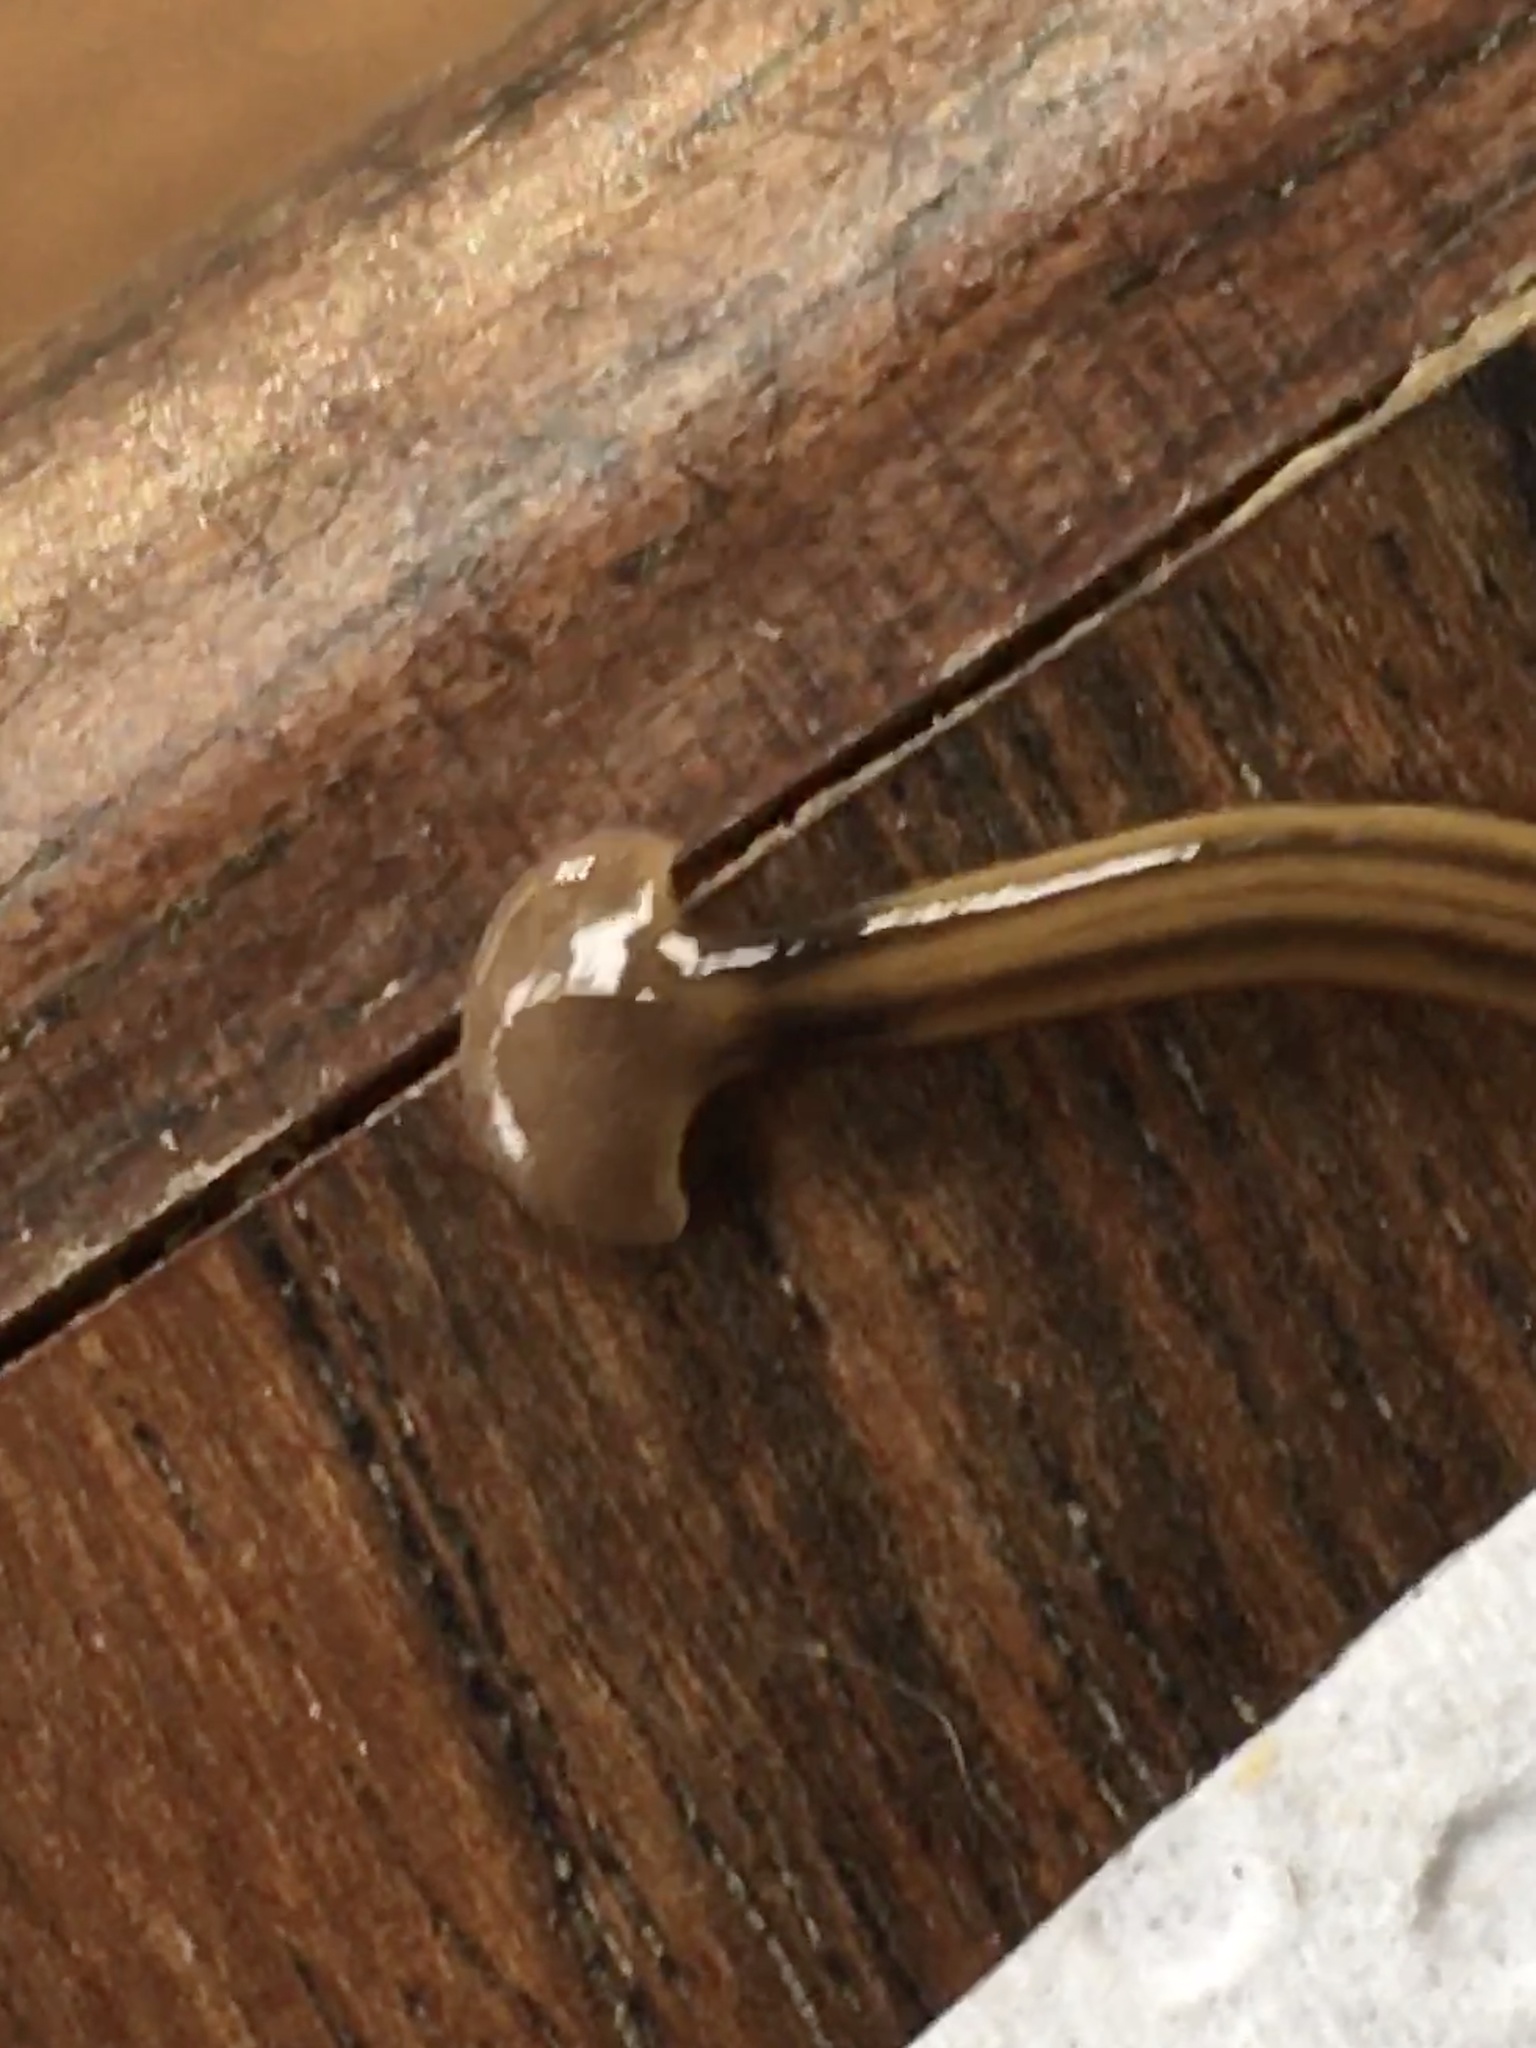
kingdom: Animalia
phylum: Platyhelminthes
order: Tricladida
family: Geoplanidae
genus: Bipalium
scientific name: Bipalium kewense
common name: Hammerhead flatworm
